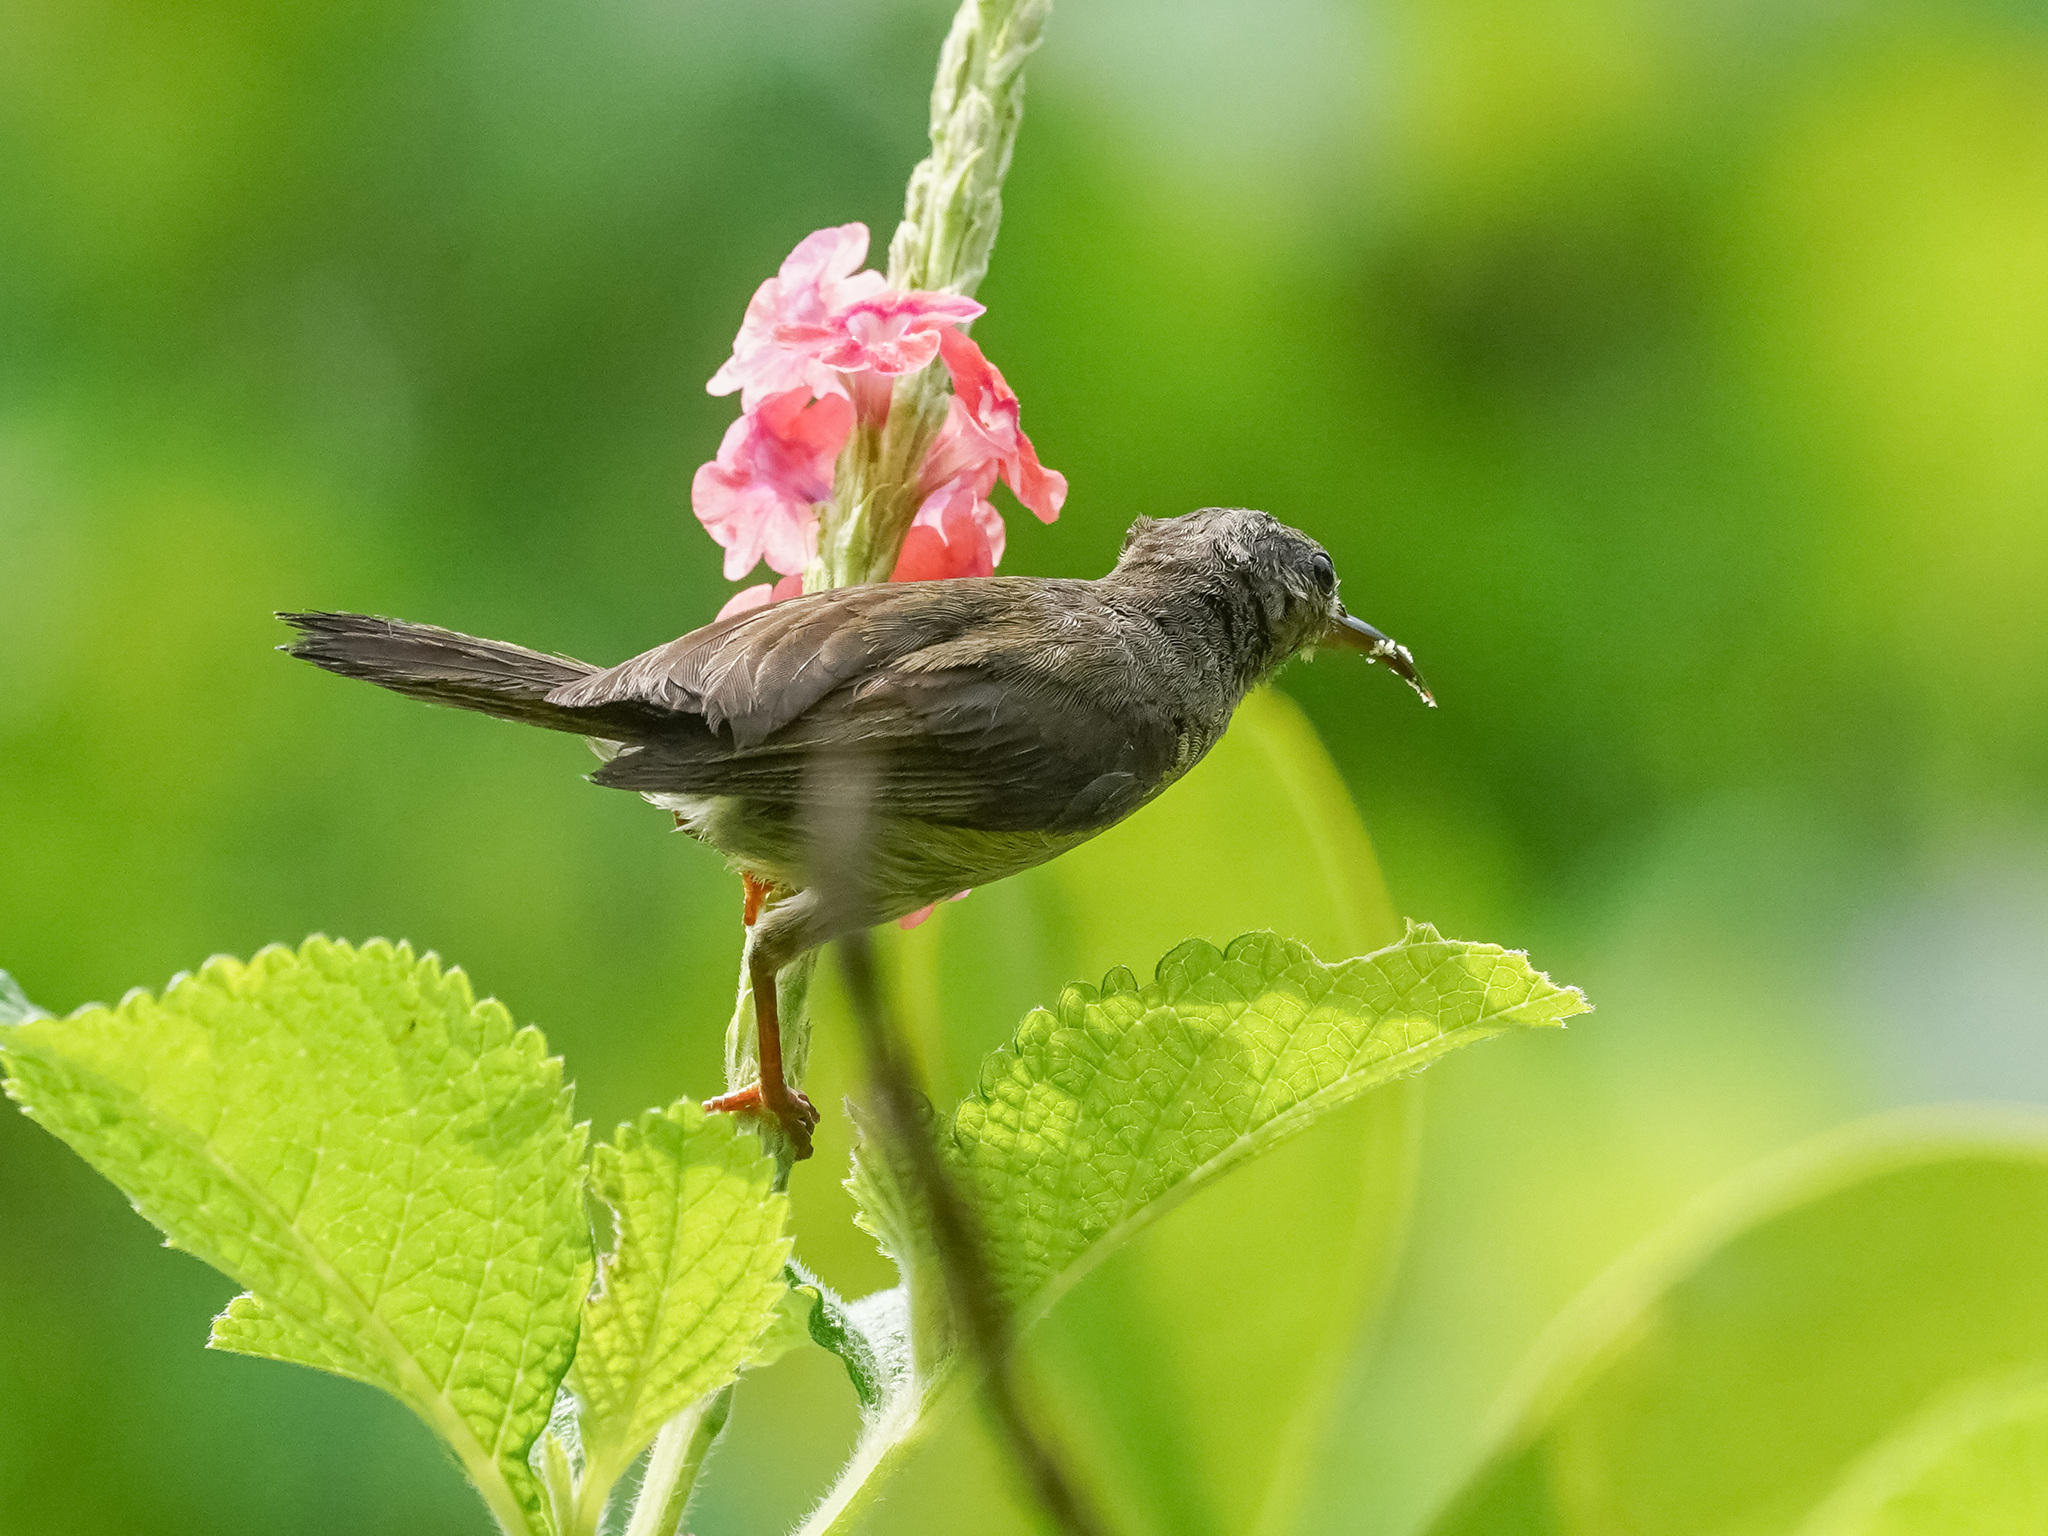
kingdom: Animalia
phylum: Chordata
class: Aves
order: Passeriformes
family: Nectariniidae
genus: Aethopyga
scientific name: Aethopyga siparaja
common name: Crimson sunbird
